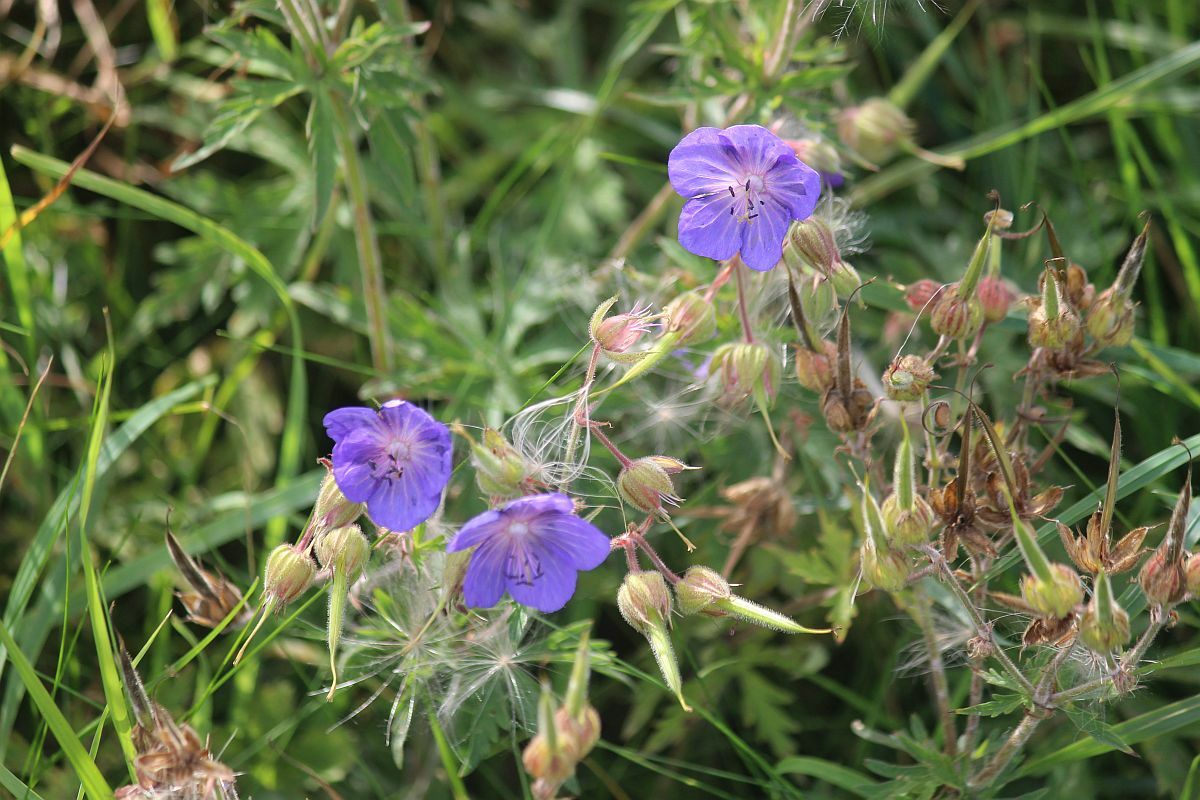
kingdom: Plantae
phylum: Tracheophyta
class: Magnoliopsida
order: Geraniales
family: Geraniaceae
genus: Geranium
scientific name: Geranium pratense
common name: Meadow crane's-bill
